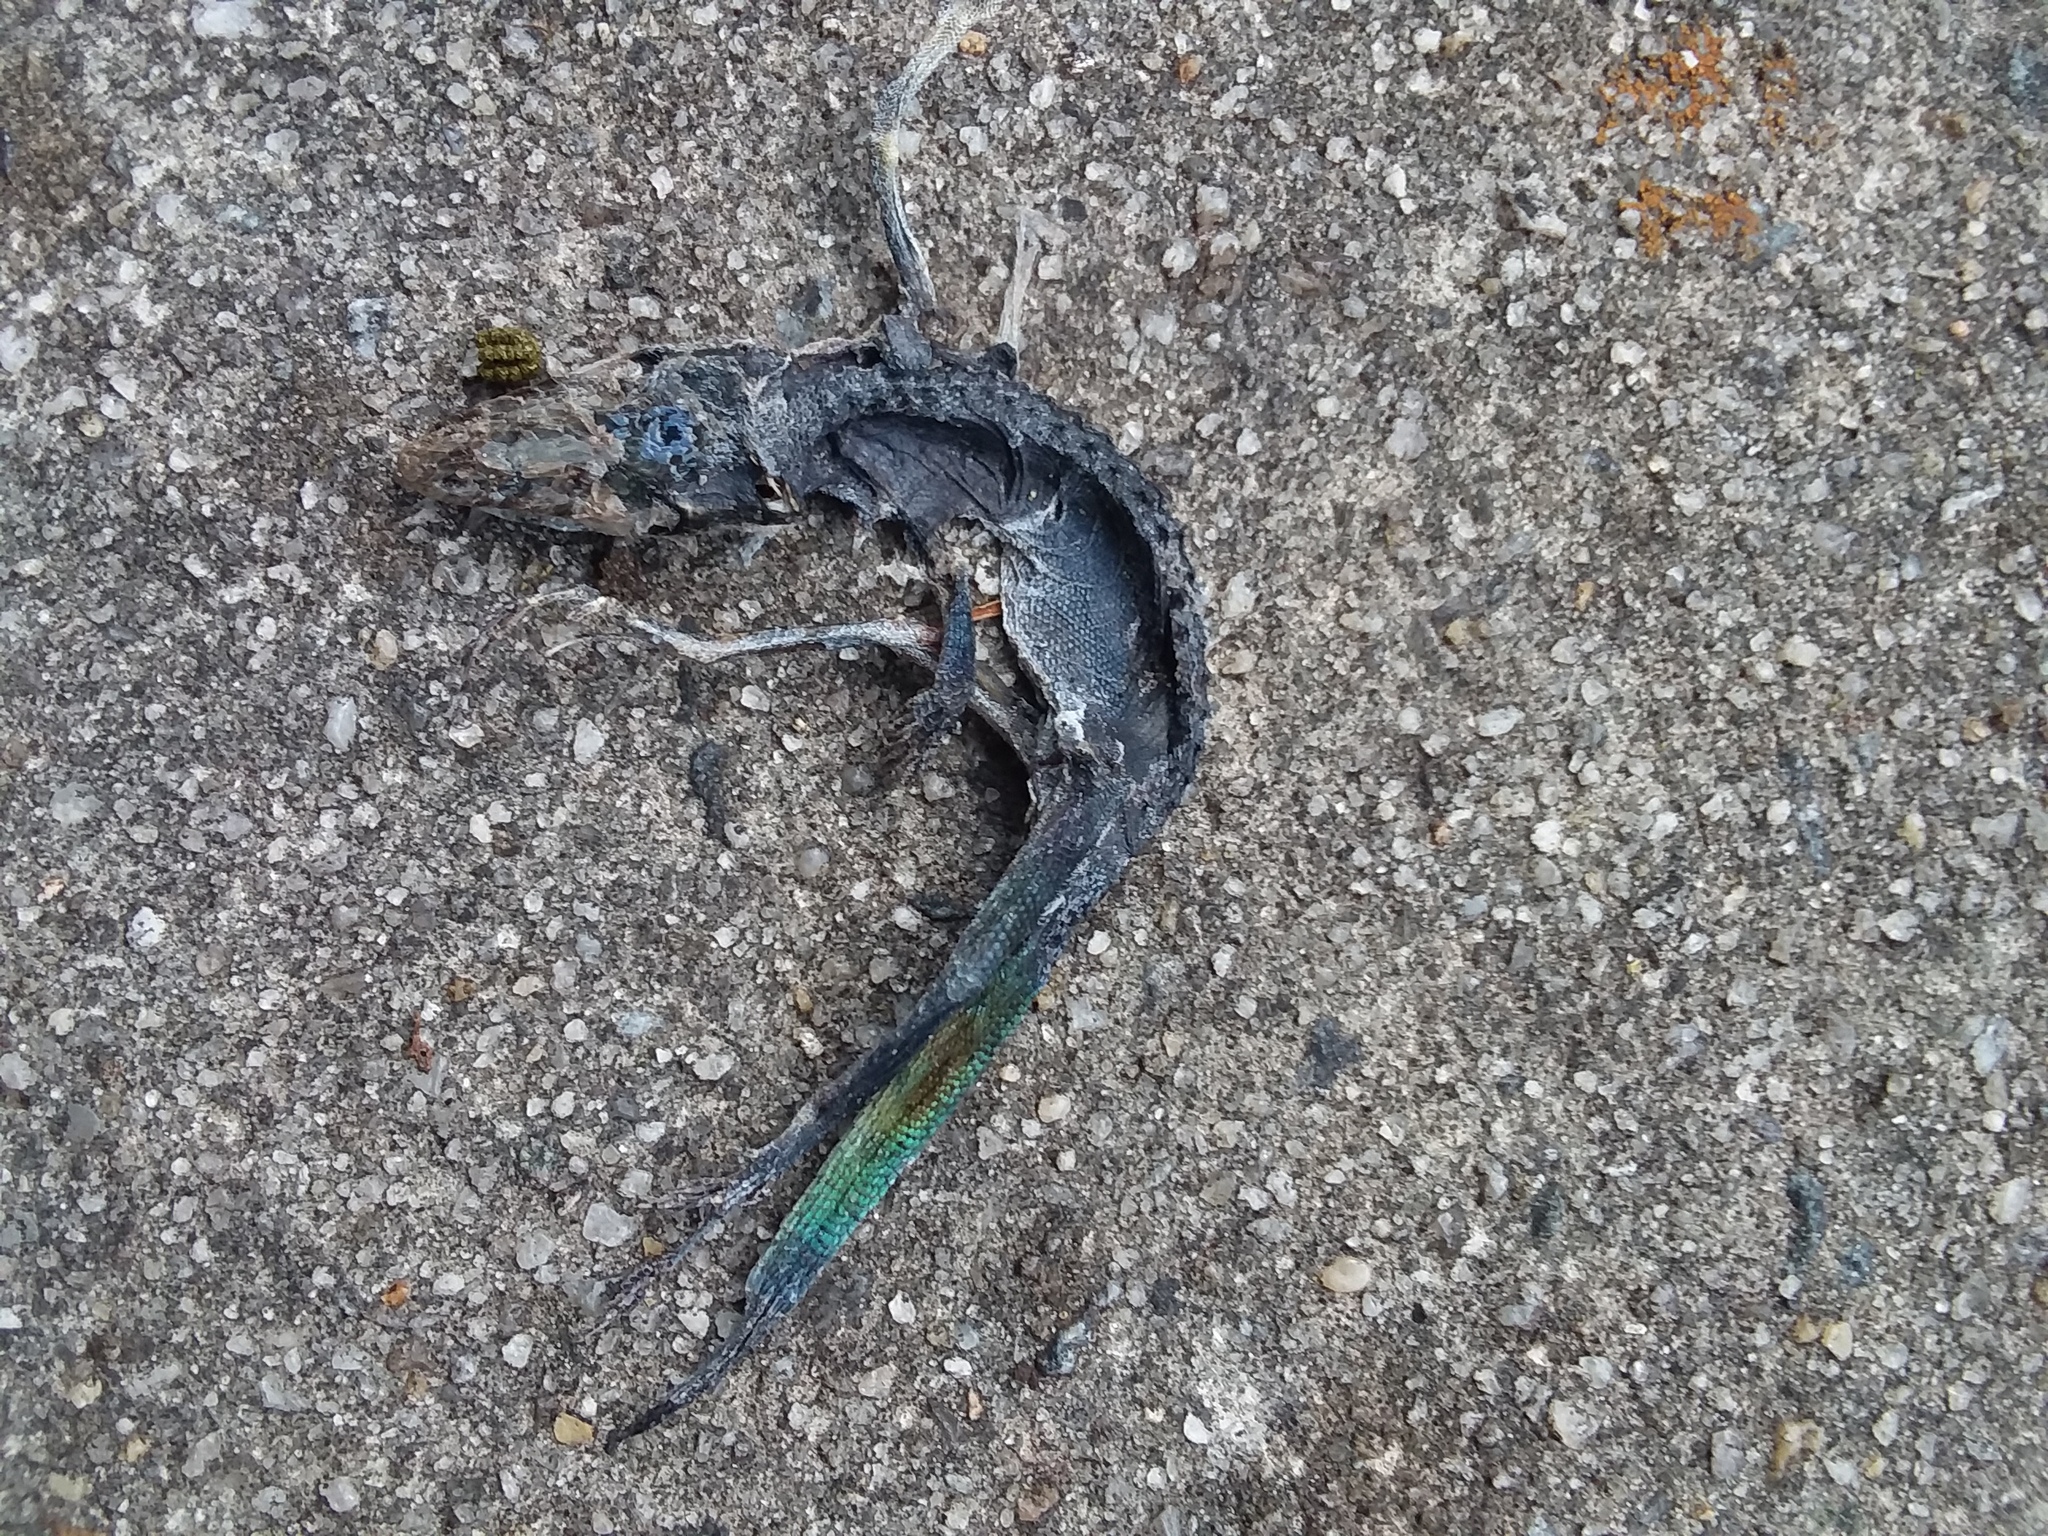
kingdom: Animalia
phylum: Chordata
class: Squamata
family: Dactyloidae
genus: Anolis
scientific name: Anolis carolinensis
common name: Green anole
